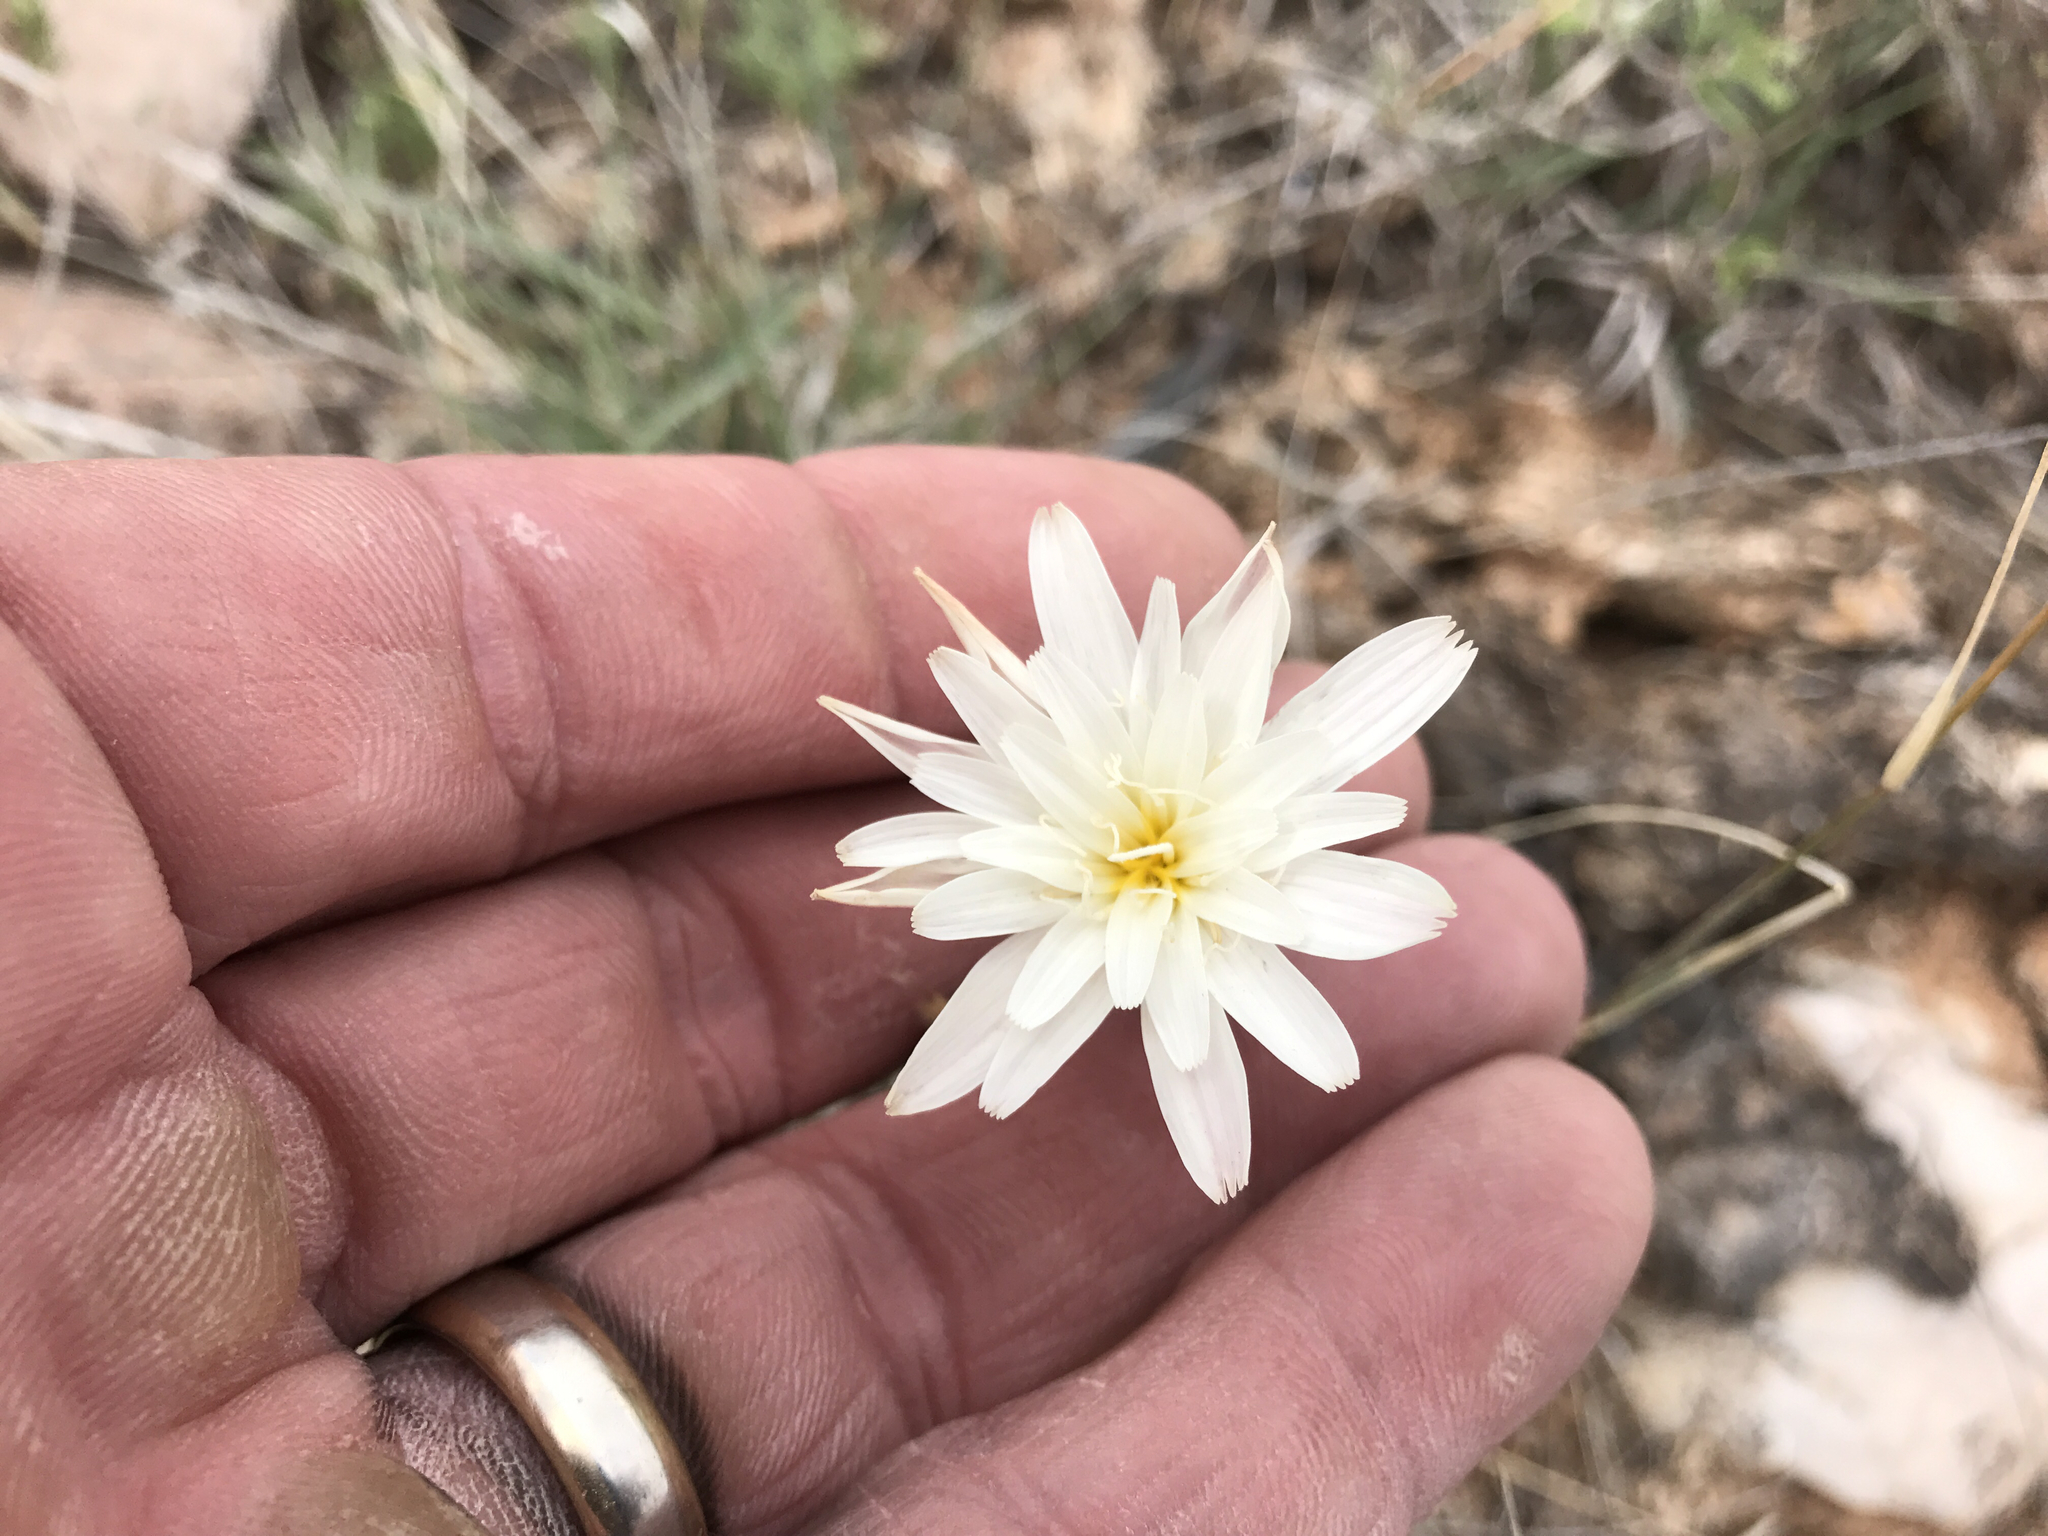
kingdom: Plantae
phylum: Tracheophyta
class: Magnoliopsida
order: Asterales
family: Asteraceae
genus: Rafinesquia
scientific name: Rafinesquia neomexicana
